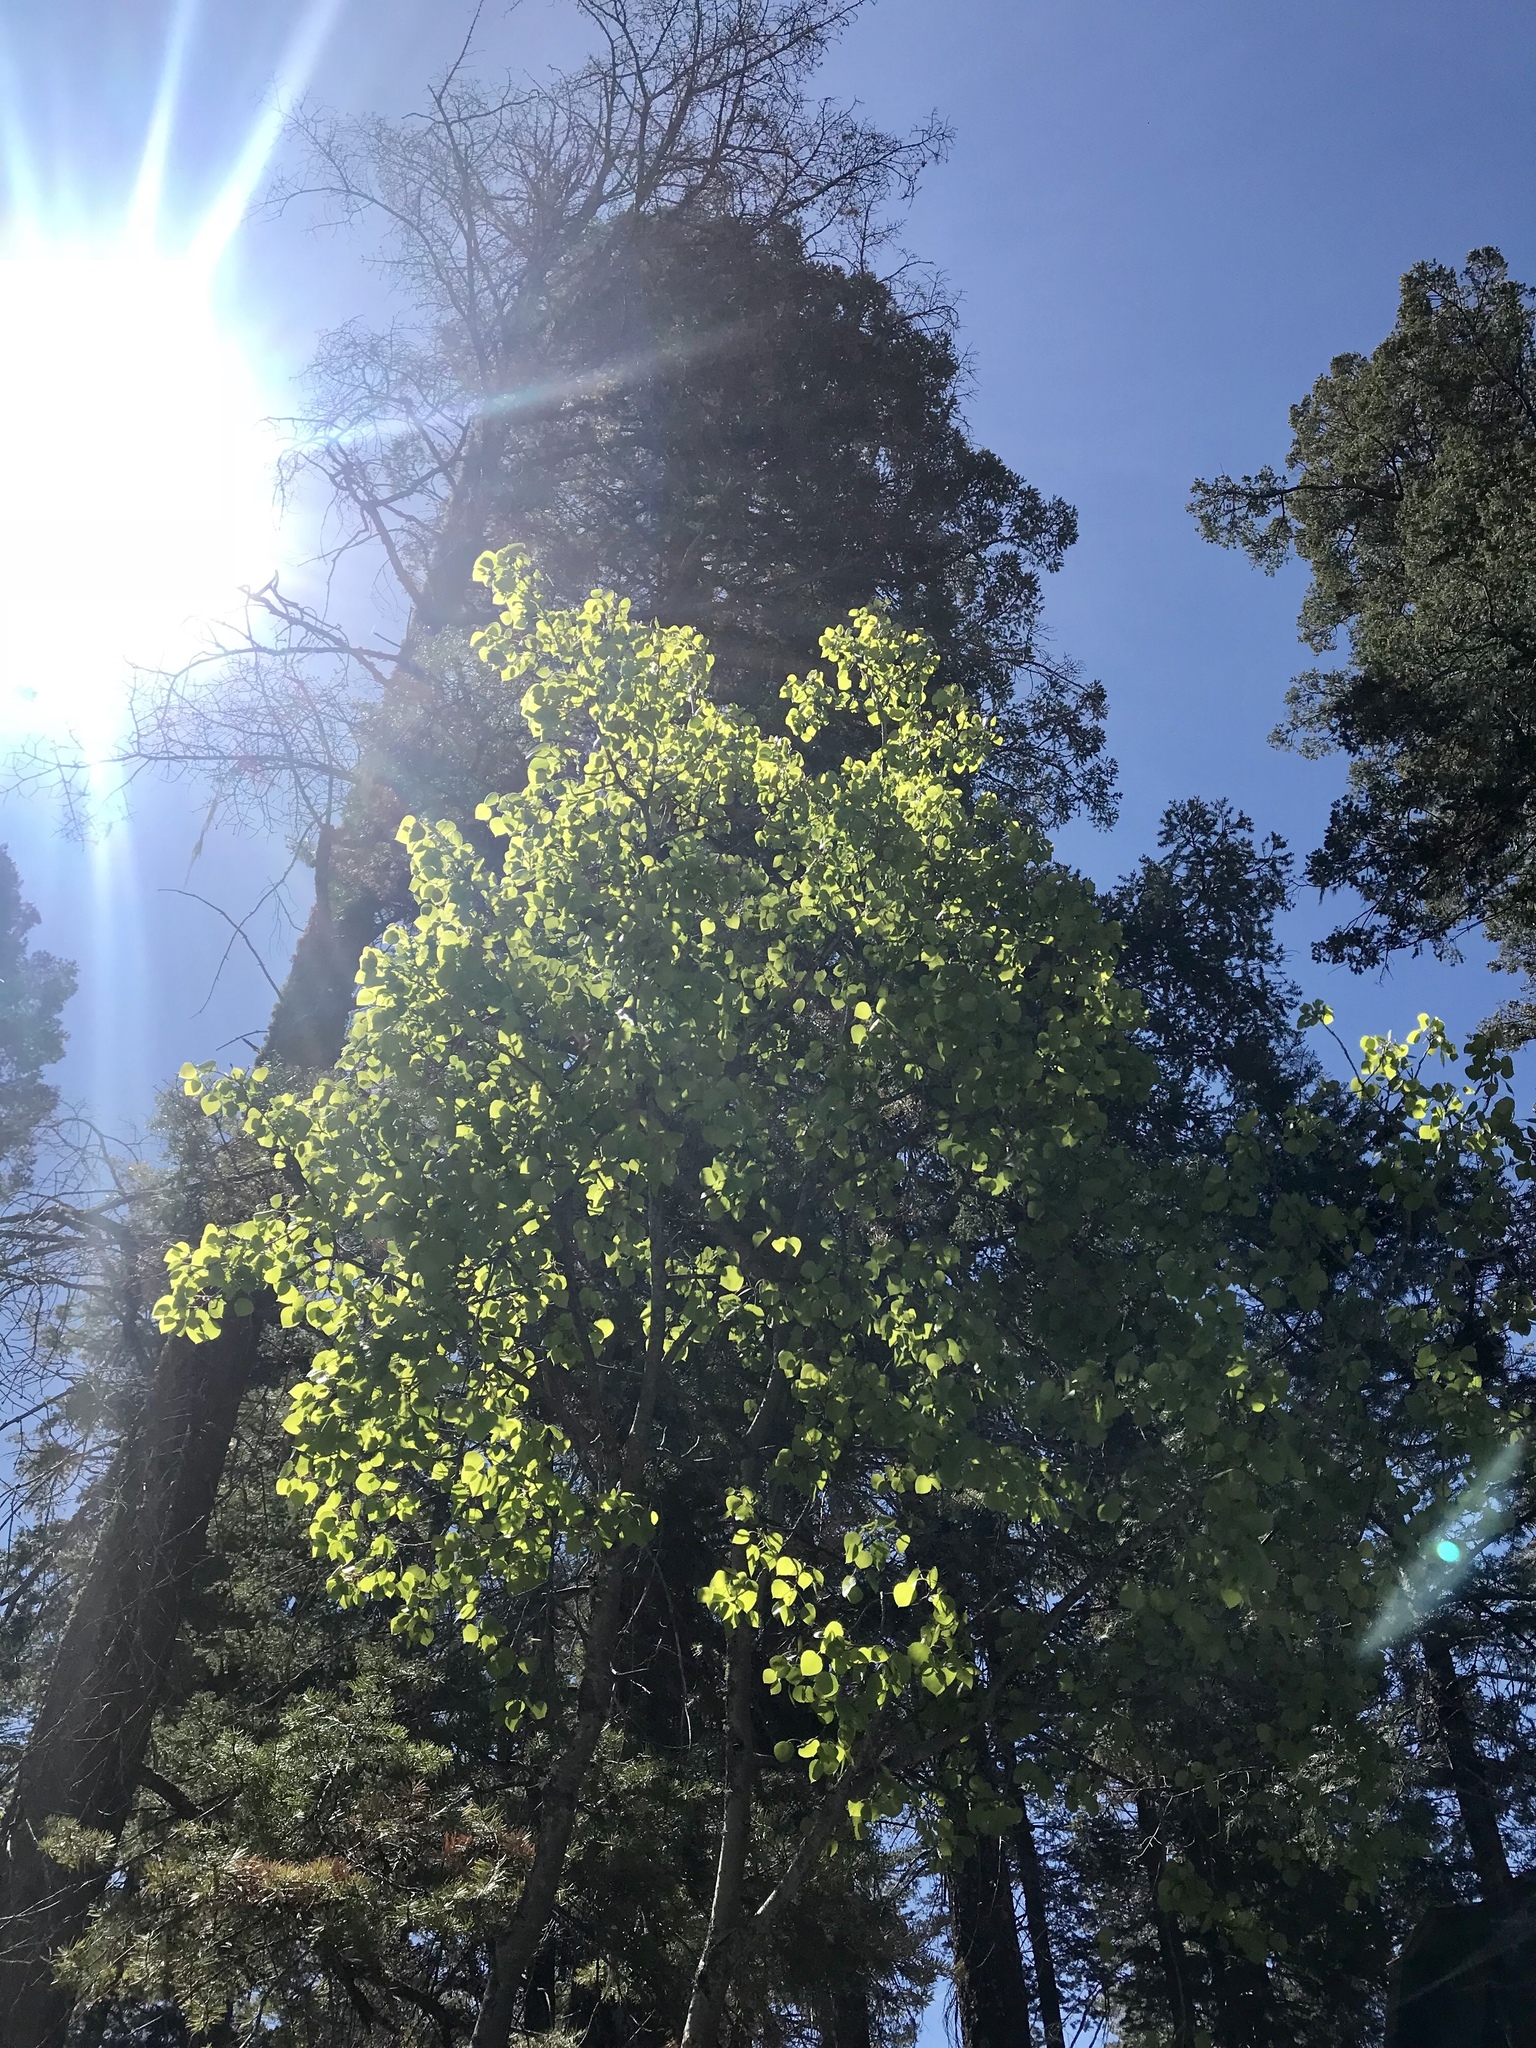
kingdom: Plantae
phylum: Tracheophyta
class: Magnoliopsida
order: Malpighiales
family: Salicaceae
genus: Populus
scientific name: Populus tremuloides
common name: Quaking aspen
